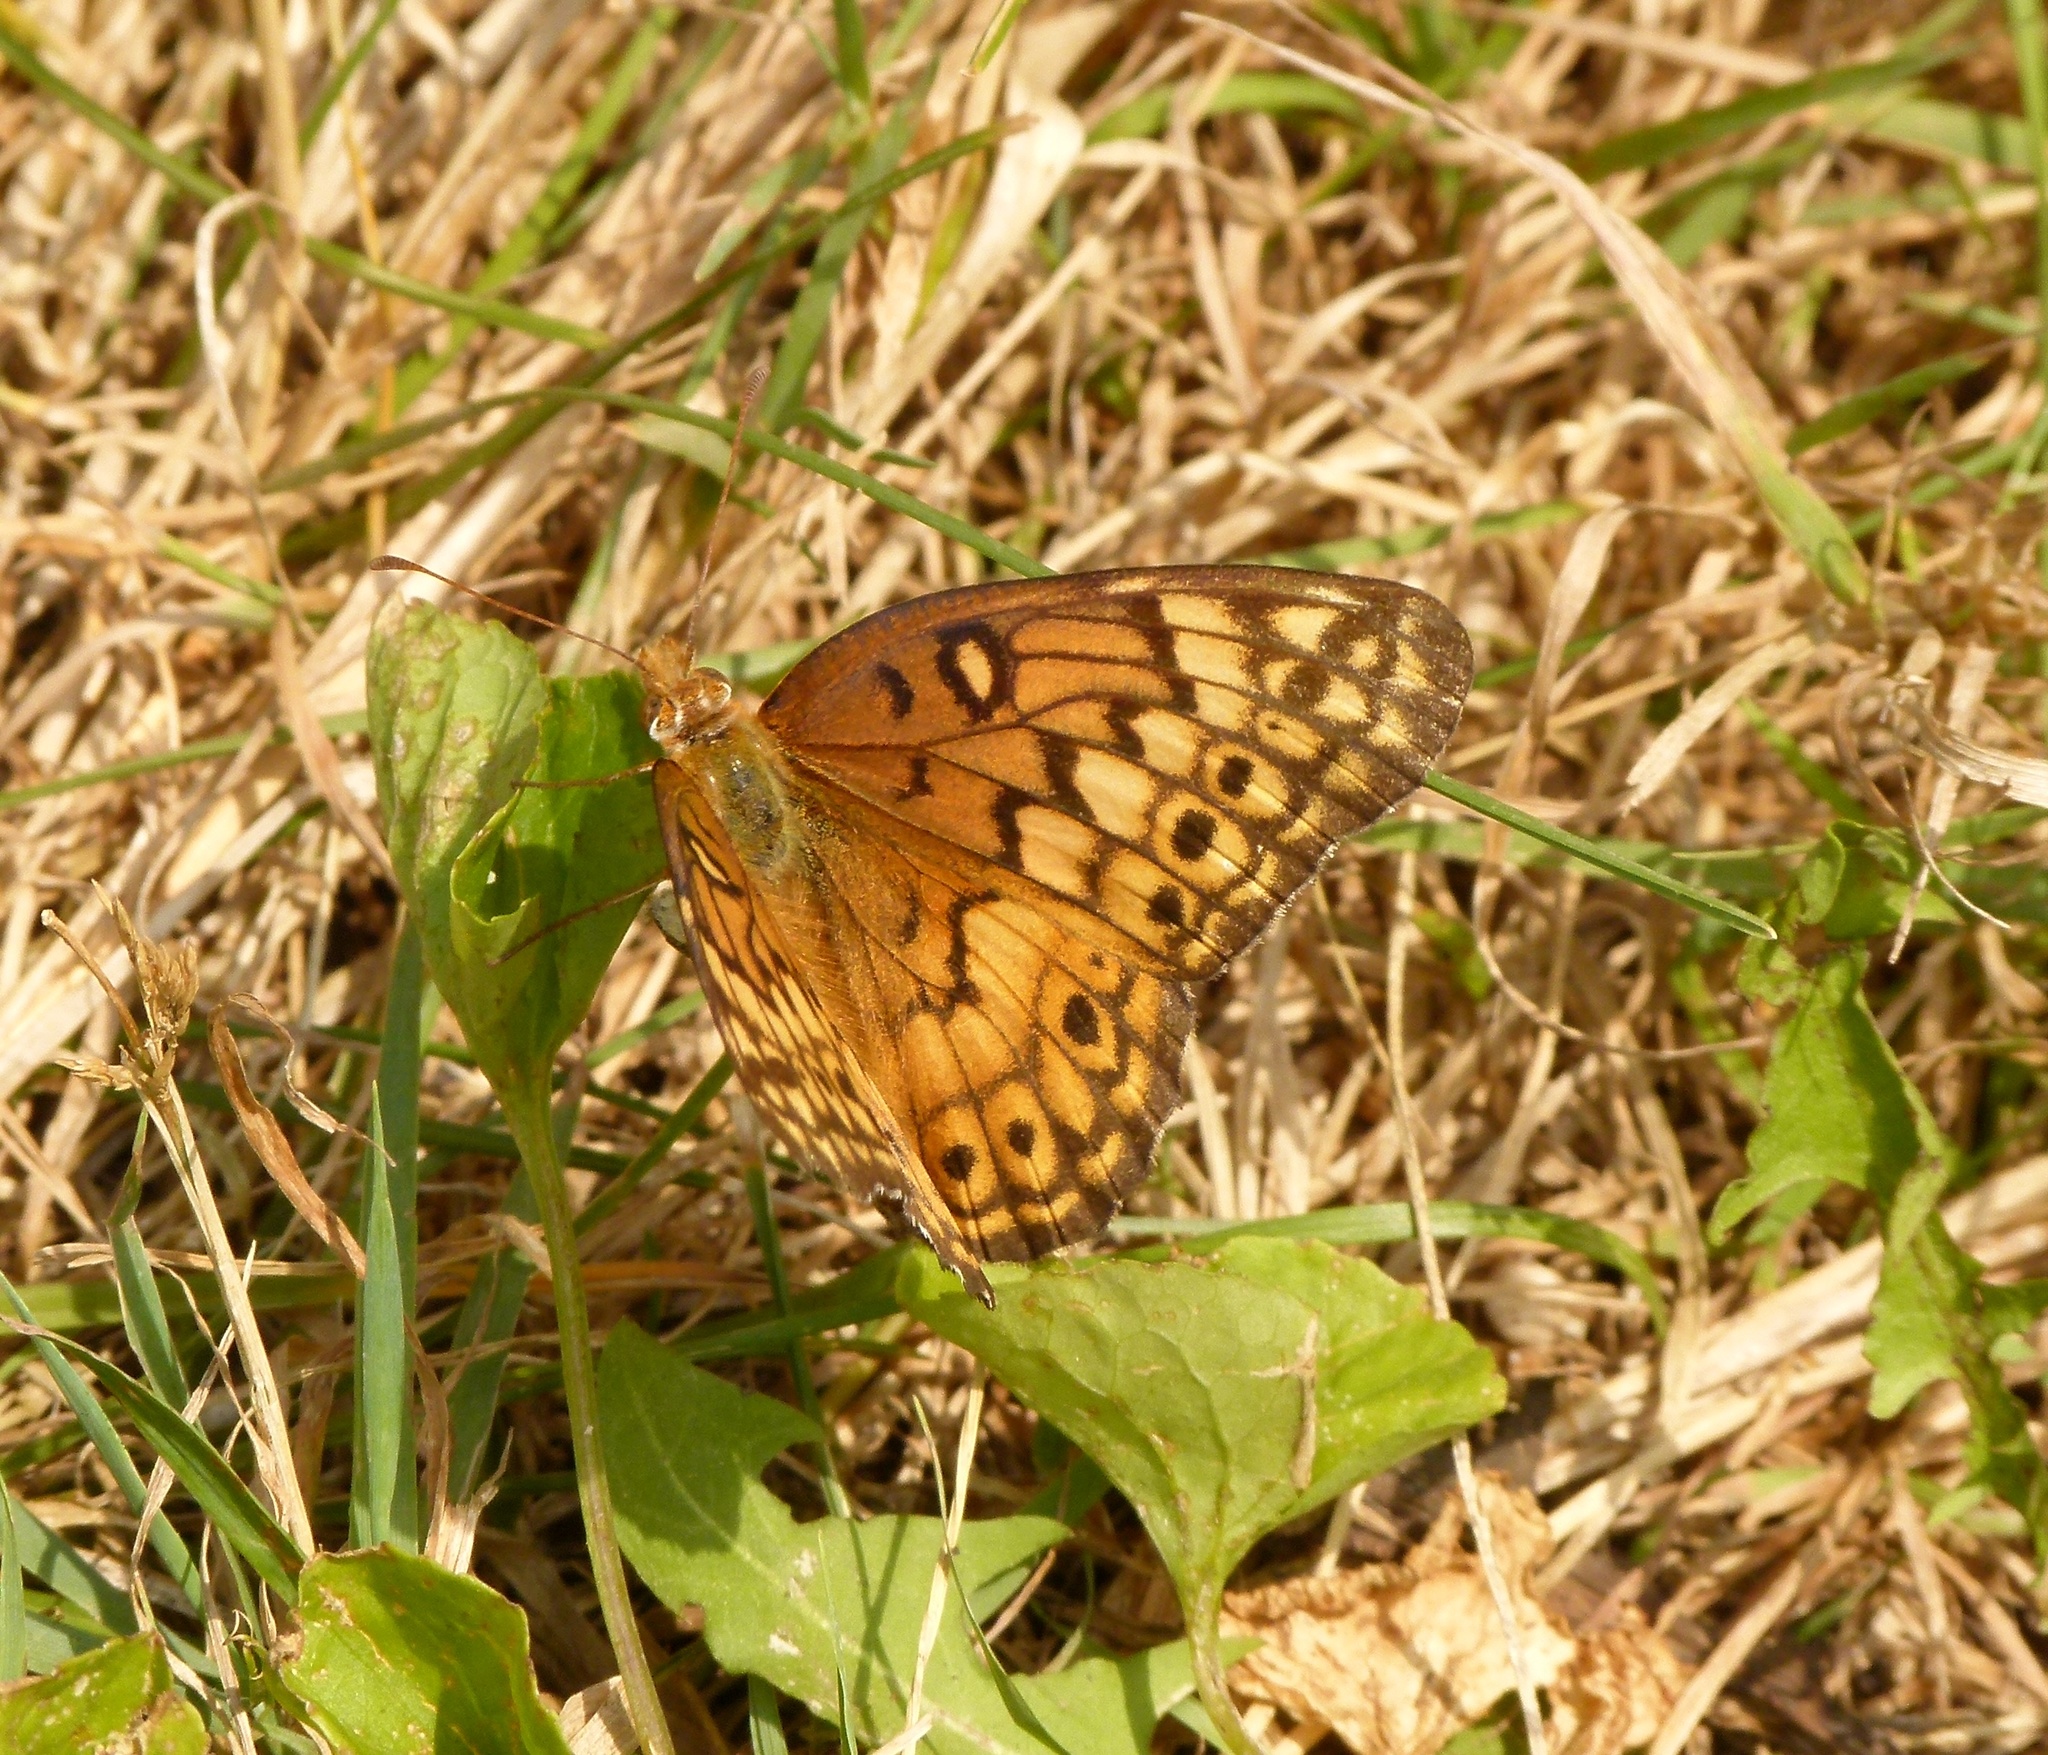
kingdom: Animalia
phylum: Arthropoda
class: Insecta
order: Lepidoptera
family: Nymphalidae
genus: Euptoieta
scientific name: Euptoieta claudia
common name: Variegated fritillary
